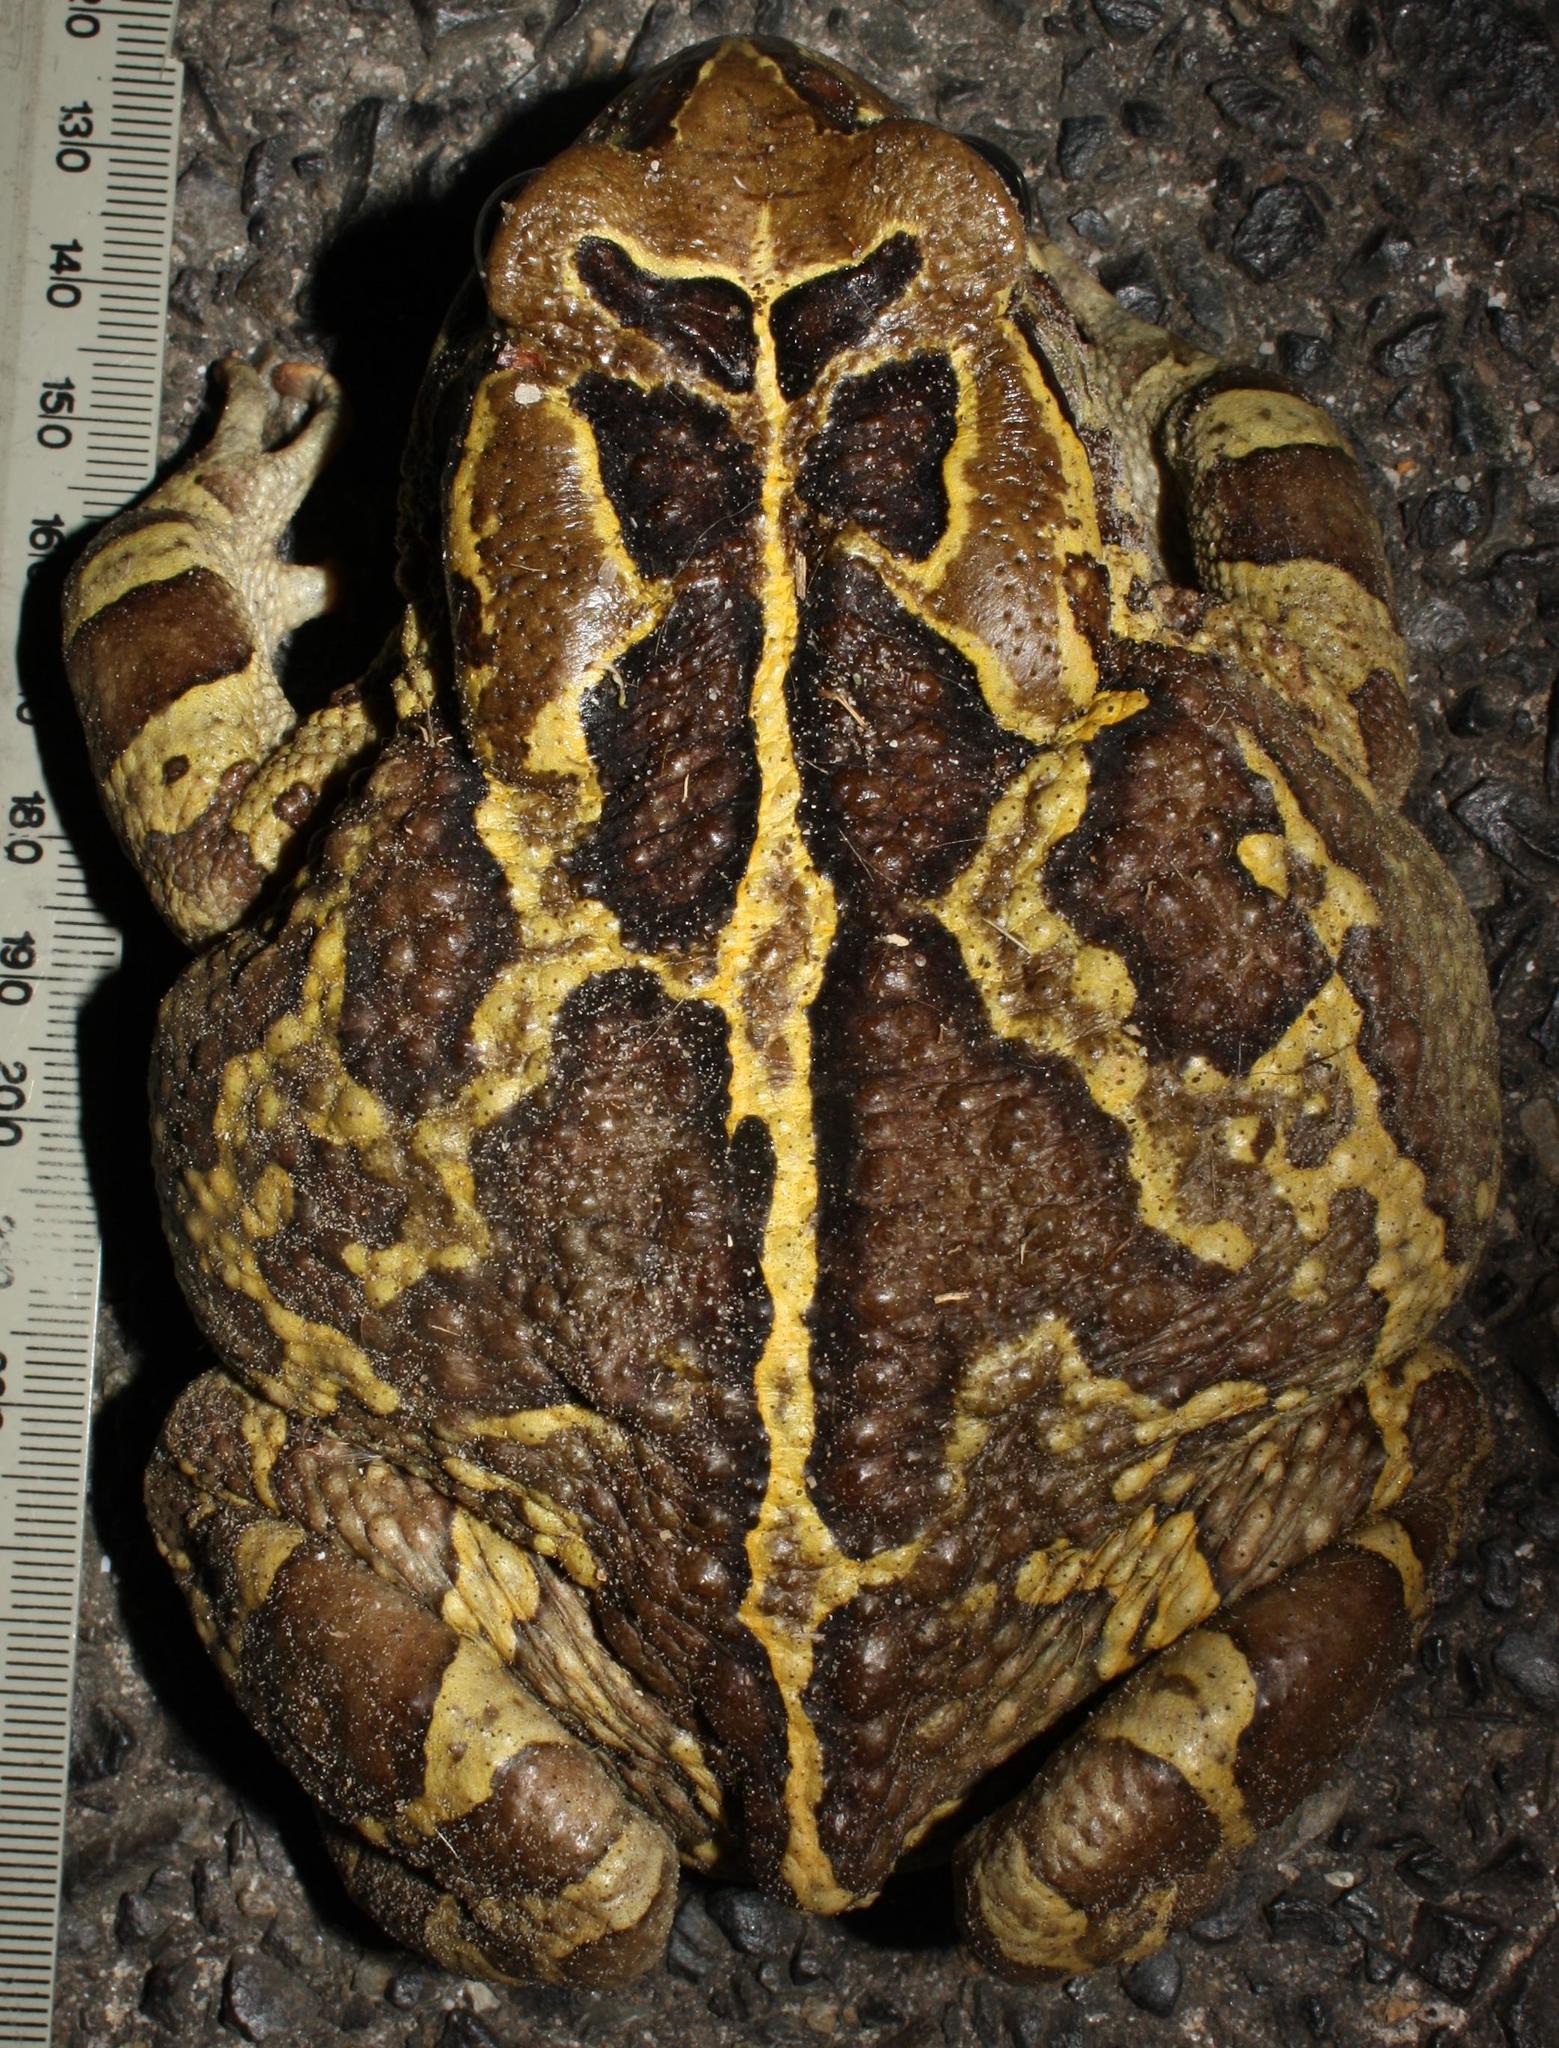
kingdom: Animalia
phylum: Chordata
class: Amphibia
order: Anura
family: Bufonidae
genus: Sclerophrys
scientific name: Sclerophrys pantherina
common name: Panther toad
